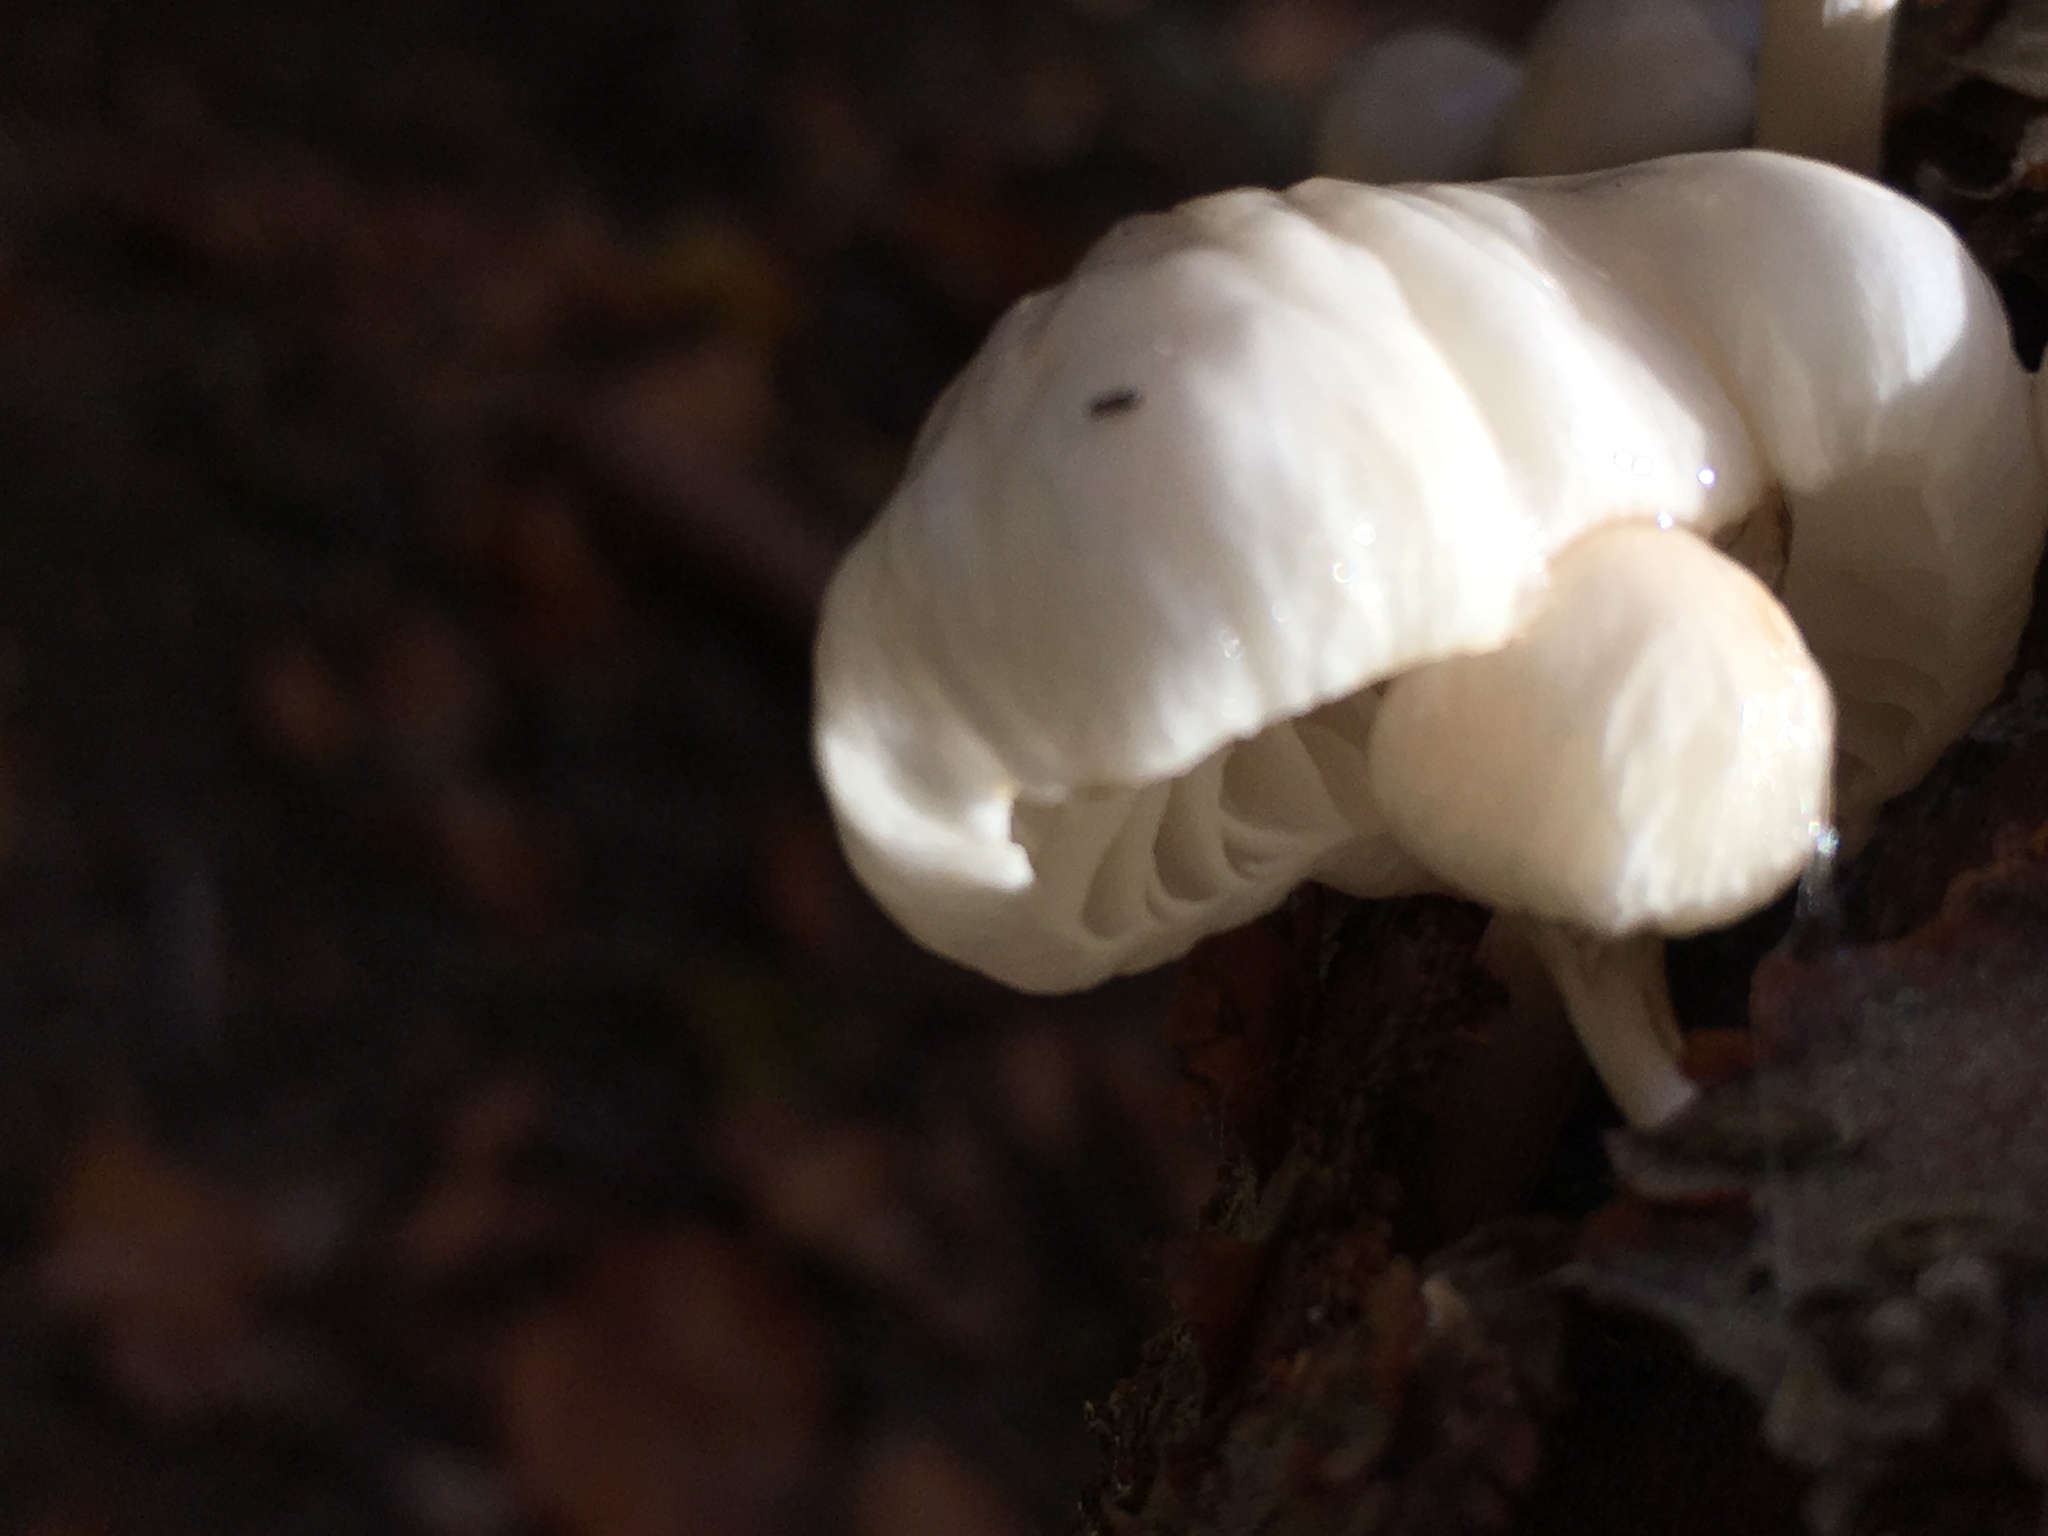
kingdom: Fungi
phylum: Basidiomycota
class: Agaricomycetes
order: Agaricales
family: Physalacriaceae
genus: Mucidula
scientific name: Mucidula mucida
